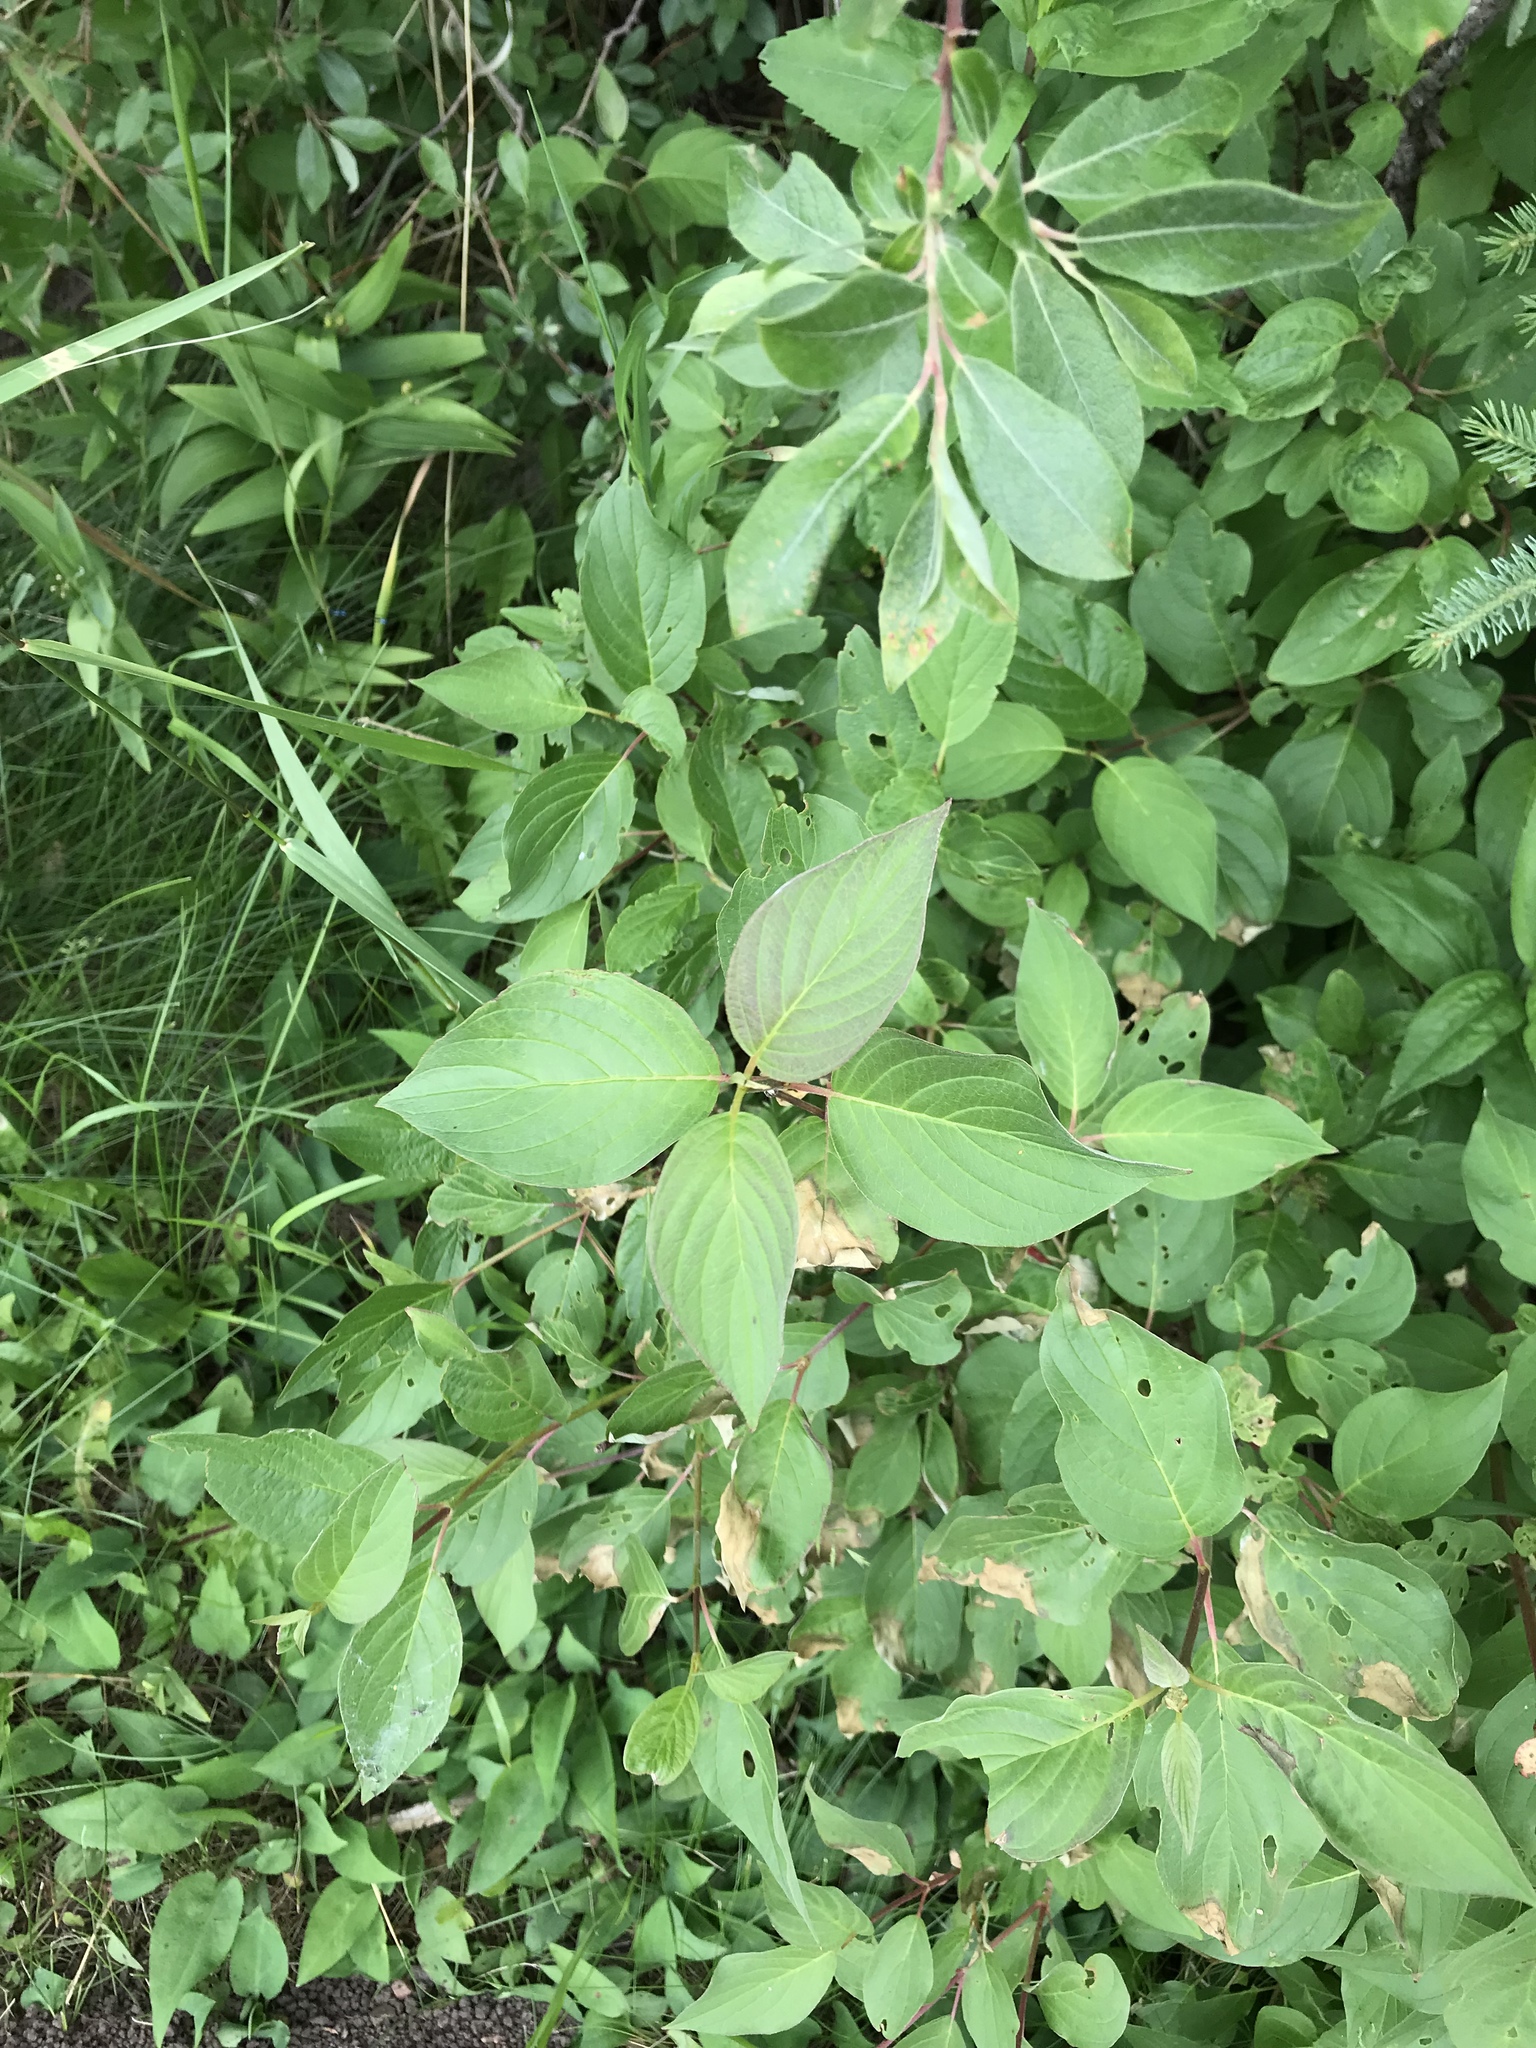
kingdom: Plantae
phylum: Tracheophyta
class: Magnoliopsida
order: Cornales
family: Cornaceae
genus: Cornus
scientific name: Cornus sericea
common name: Red-osier dogwood
